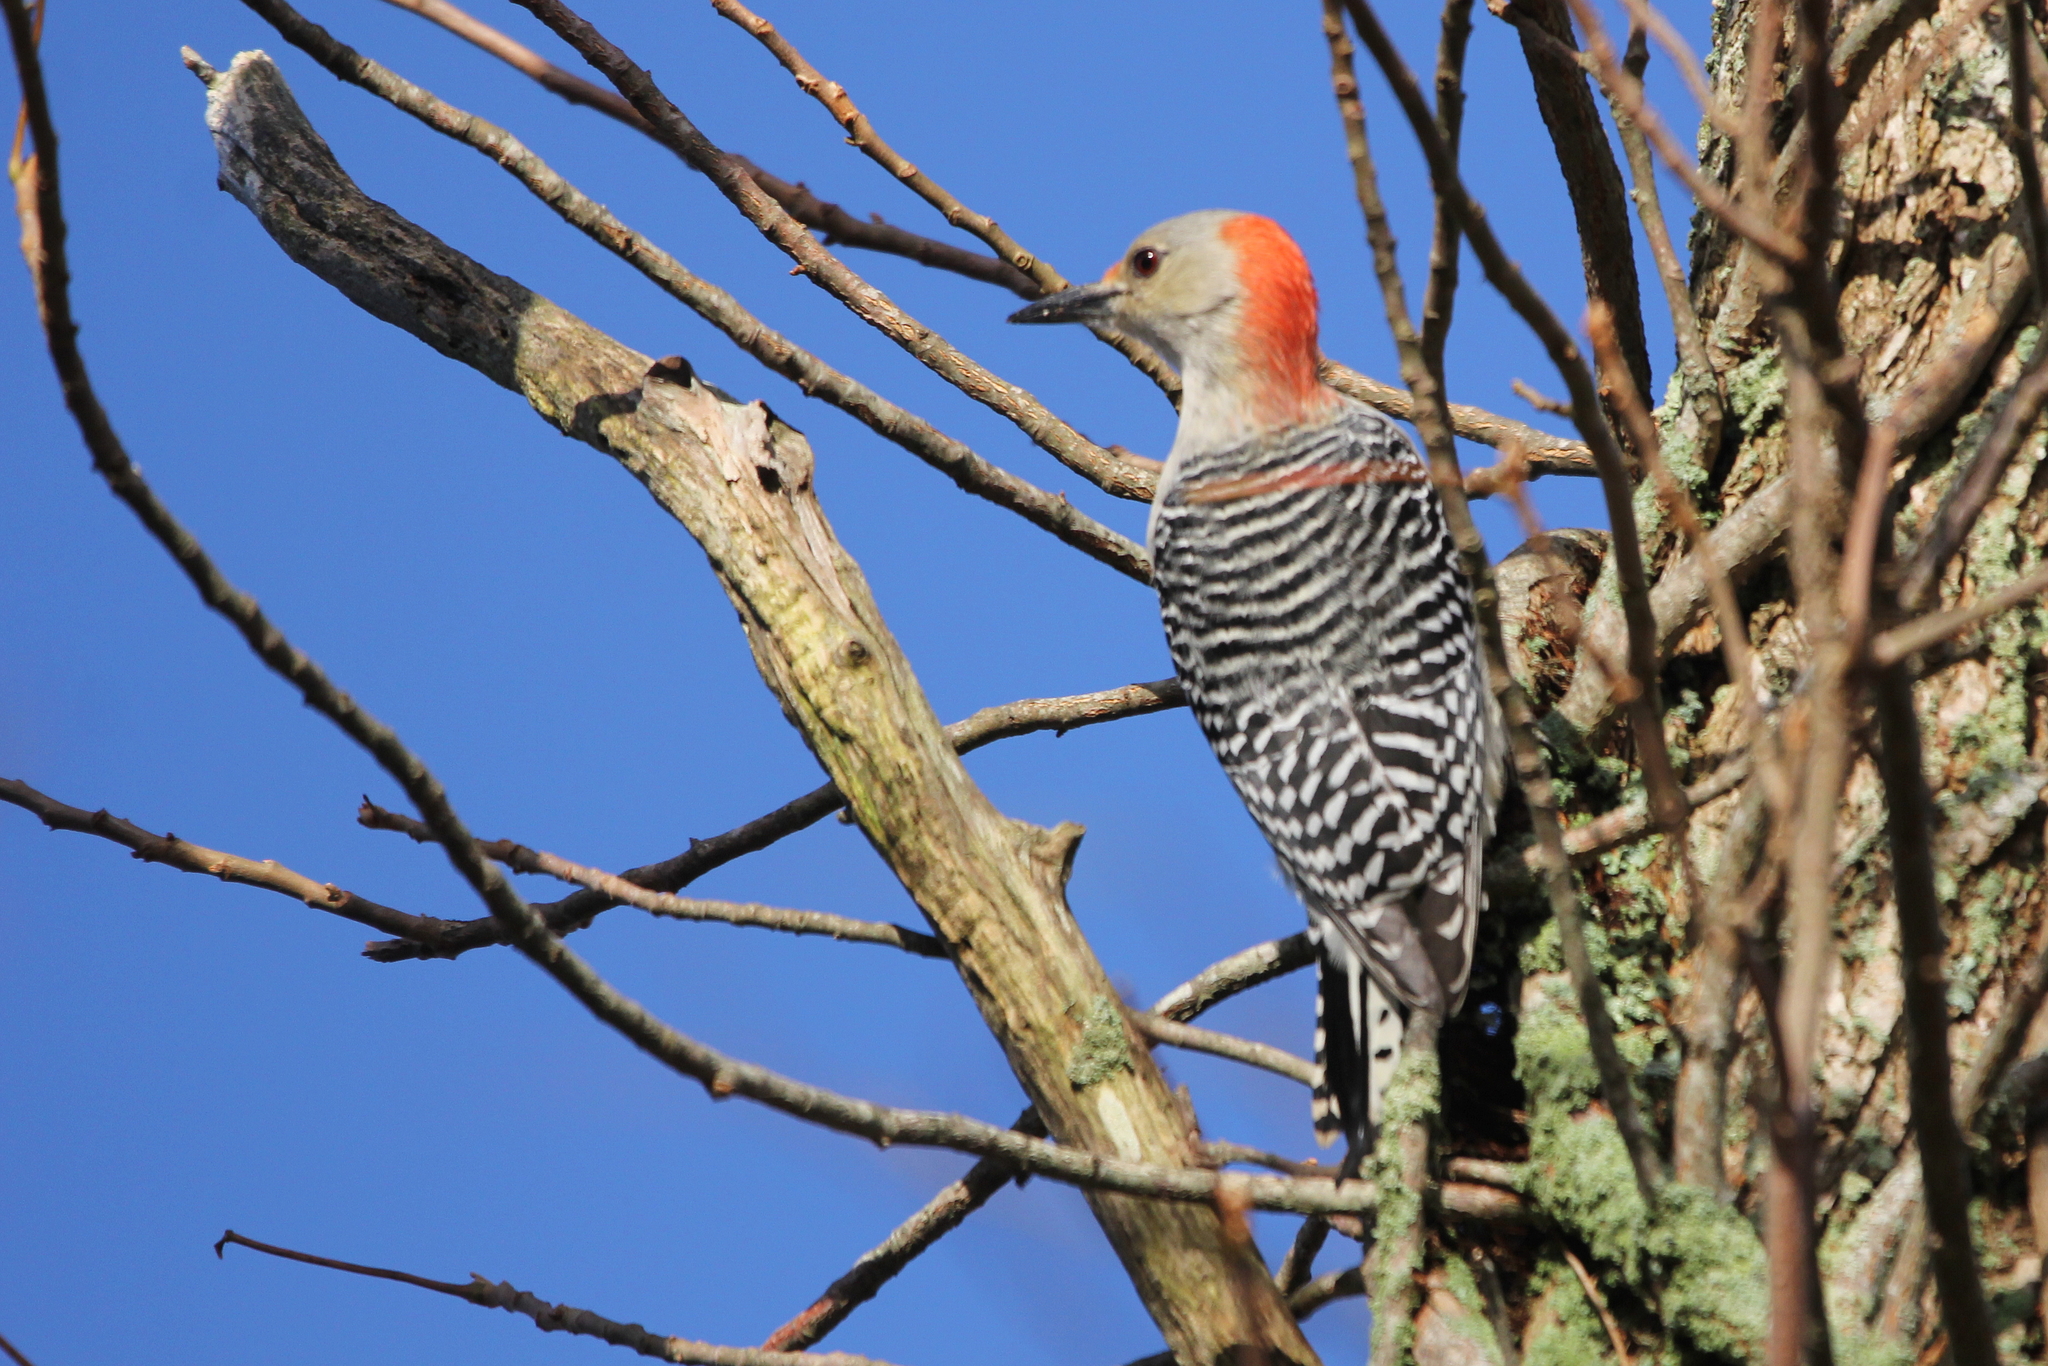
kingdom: Animalia
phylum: Chordata
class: Aves
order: Piciformes
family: Picidae
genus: Melanerpes
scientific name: Melanerpes carolinus
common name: Red-bellied woodpecker
